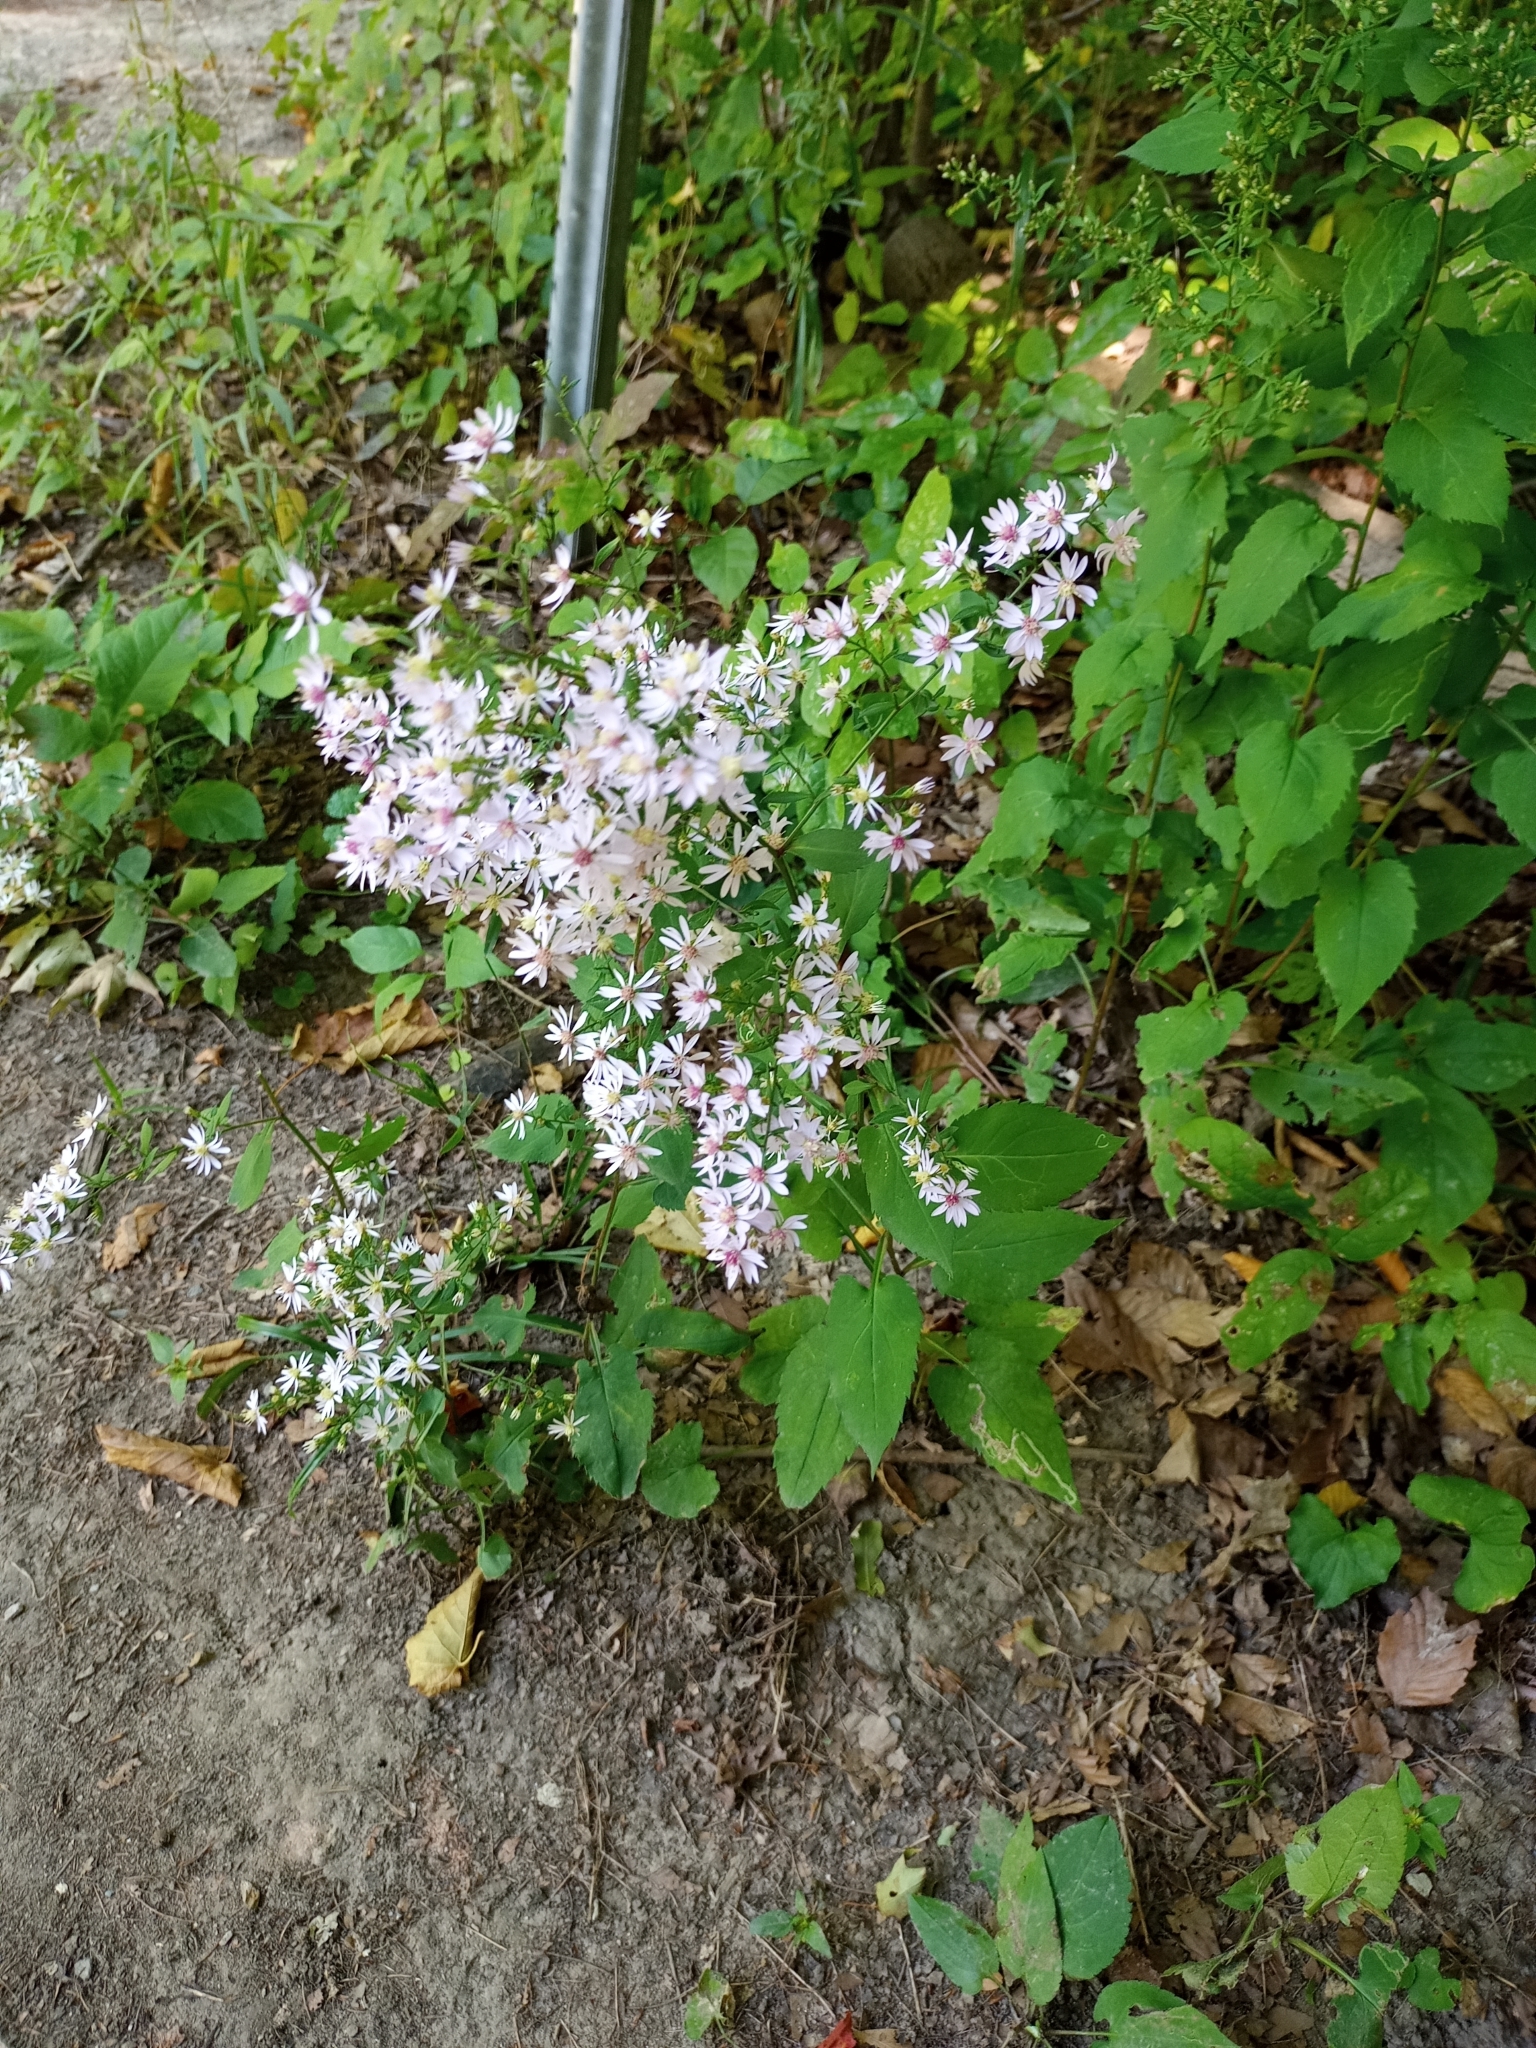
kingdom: Plantae
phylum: Tracheophyta
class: Magnoliopsida
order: Asterales
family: Asteraceae
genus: Symphyotrichum
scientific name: Symphyotrichum cordifolium
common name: Beeweed
